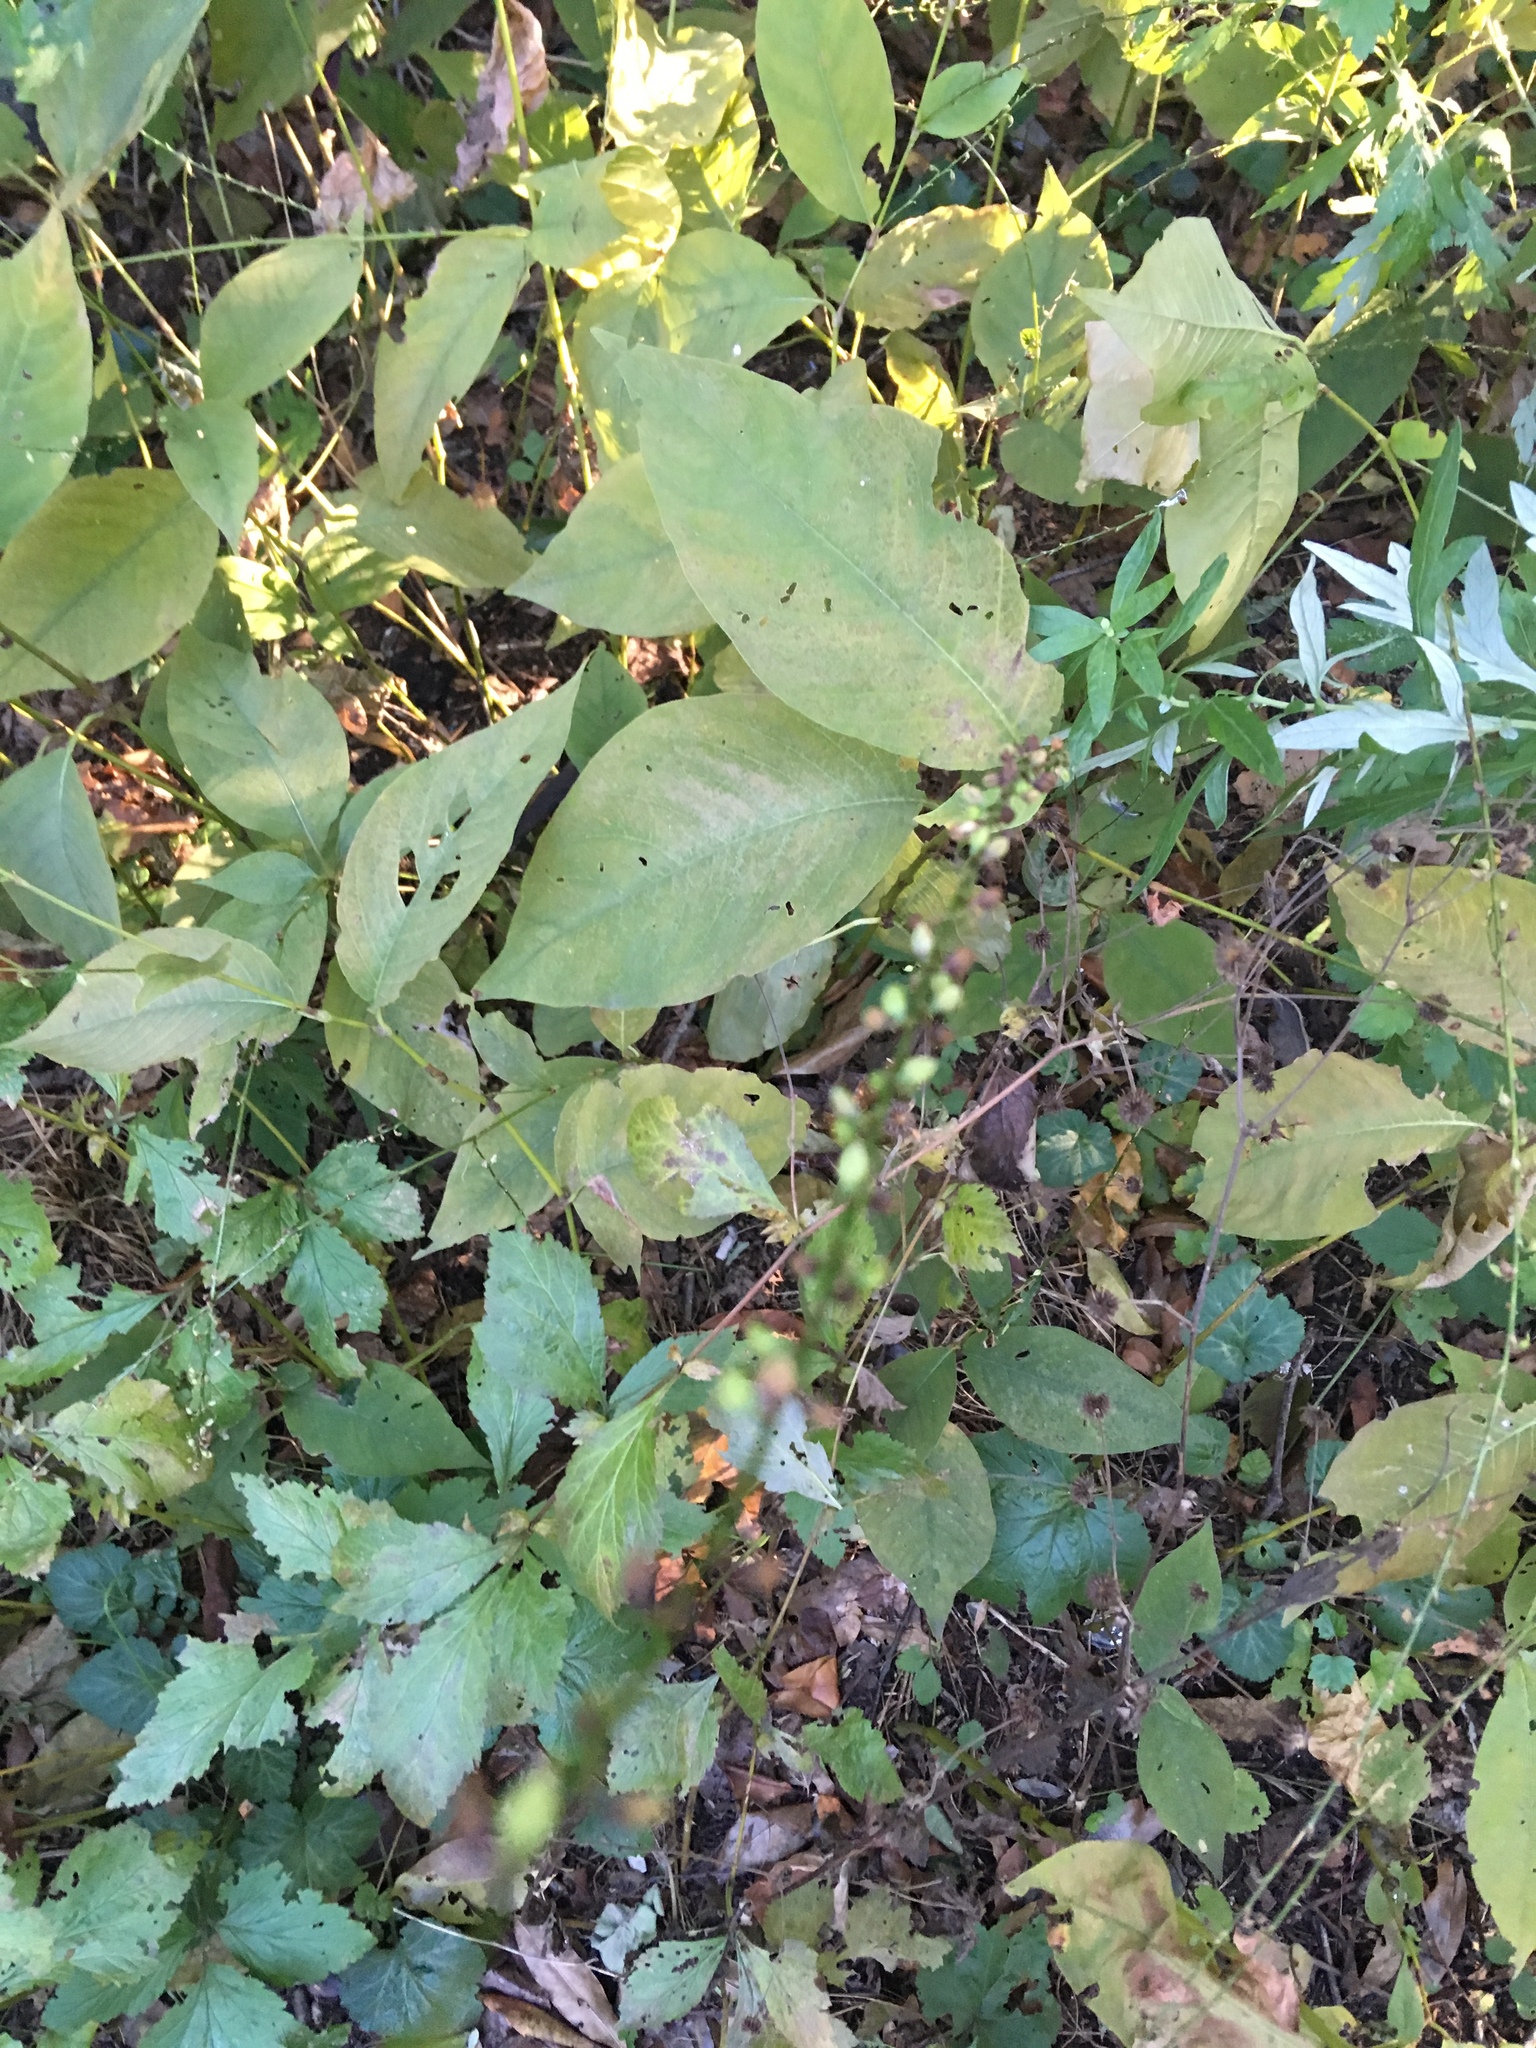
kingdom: Plantae
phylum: Tracheophyta
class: Magnoliopsida
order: Caryophyllales
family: Polygonaceae
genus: Persicaria
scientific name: Persicaria virginiana
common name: Jumpseed
